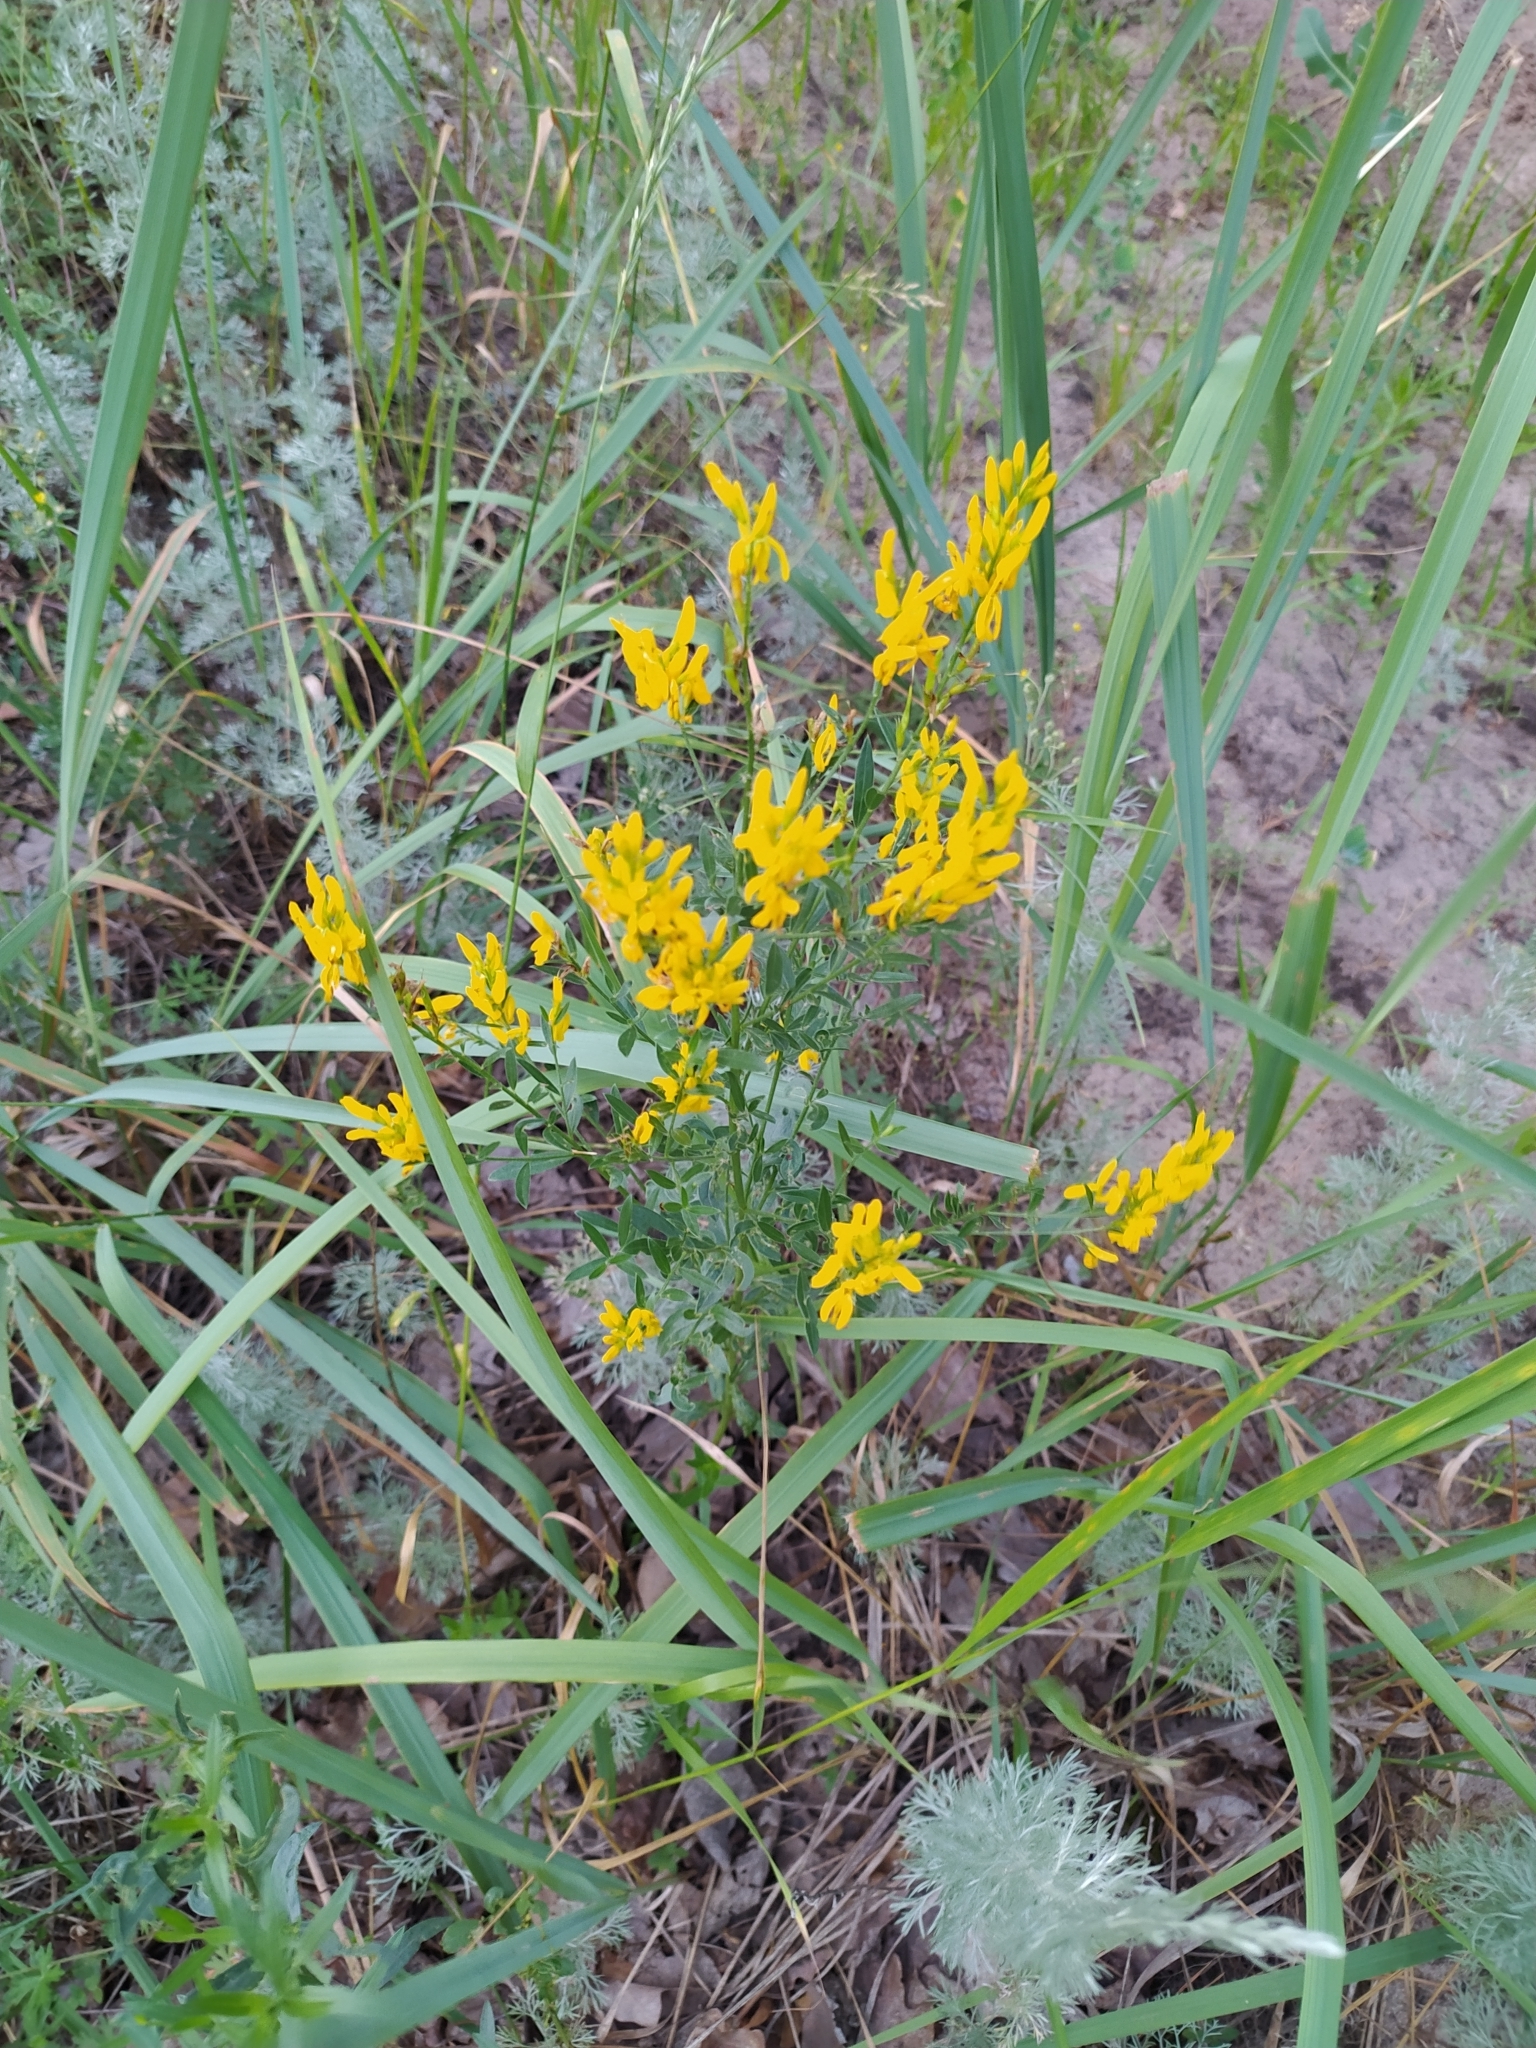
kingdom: Plantae
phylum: Tracheophyta
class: Magnoliopsida
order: Fabales
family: Fabaceae
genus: Genista
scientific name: Genista tinctoria
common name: Dyer's greenweed
